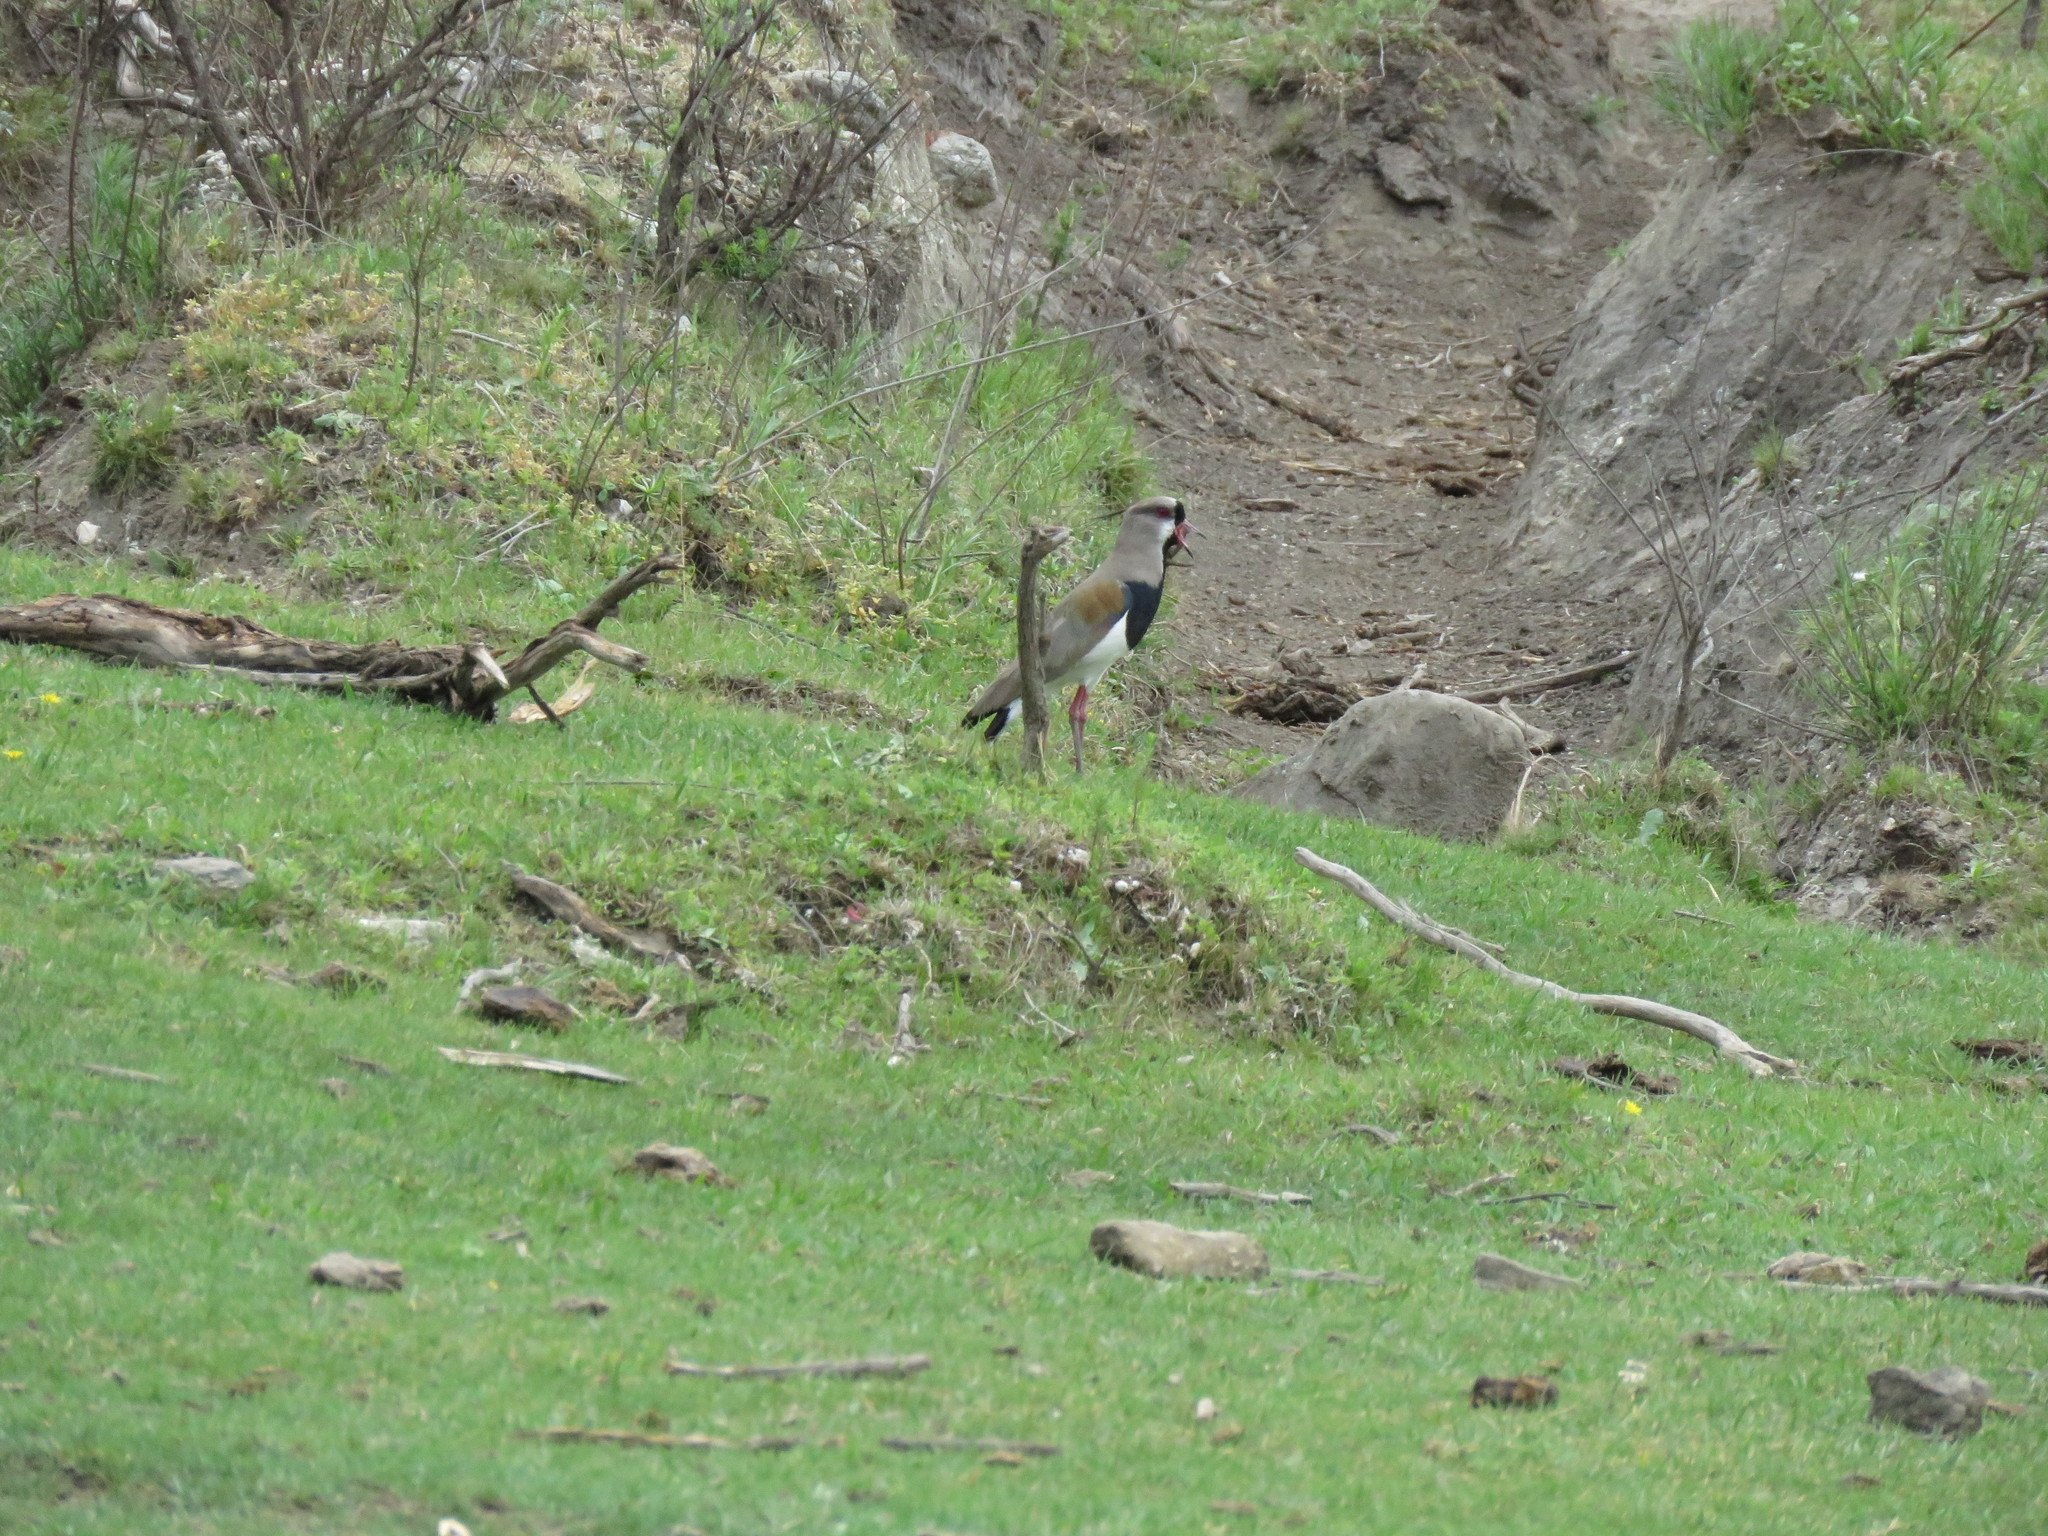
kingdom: Animalia
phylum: Chordata
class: Aves
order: Charadriiformes
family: Charadriidae
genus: Vanellus
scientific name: Vanellus chilensis
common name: Southern lapwing
